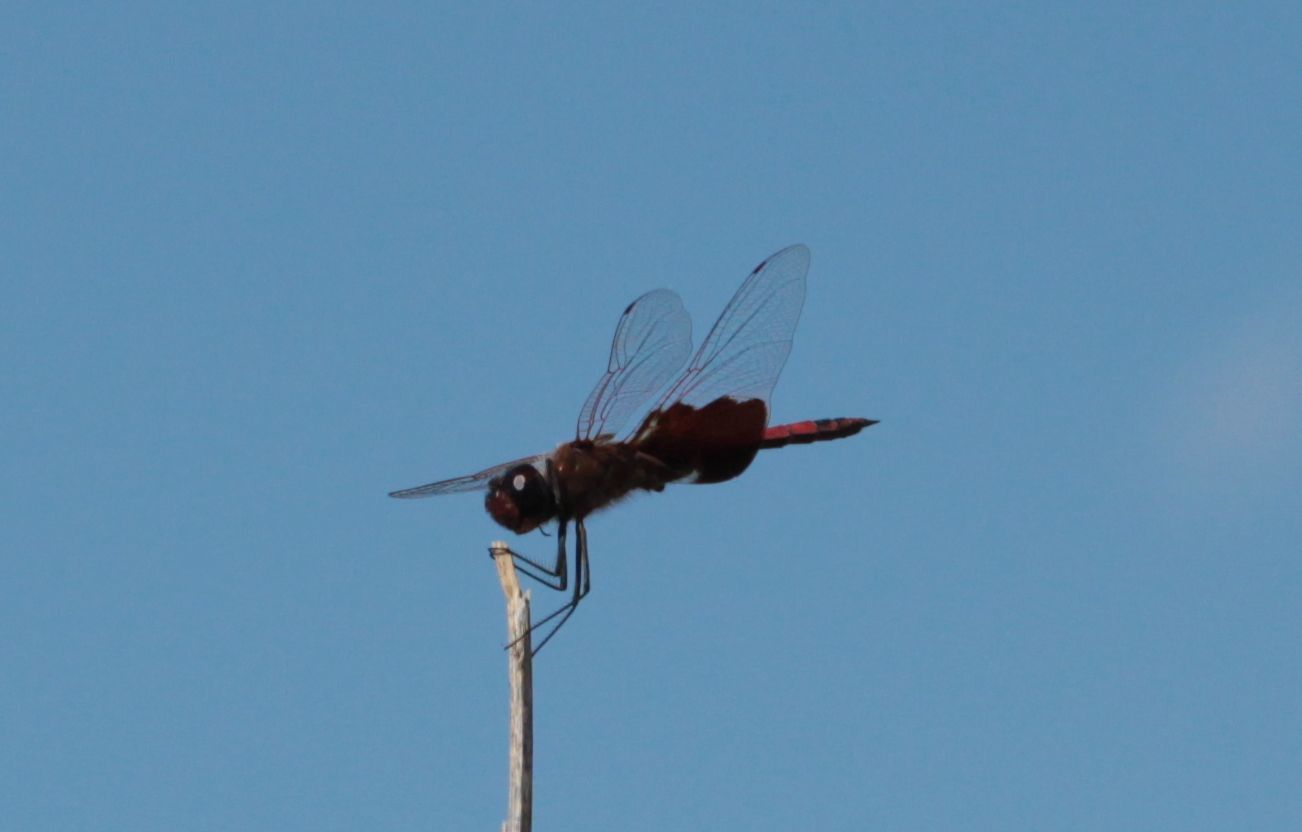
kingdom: Animalia
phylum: Arthropoda
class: Insecta
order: Odonata
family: Libellulidae
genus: Tramea
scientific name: Tramea carolina
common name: Carolina saddlebags
